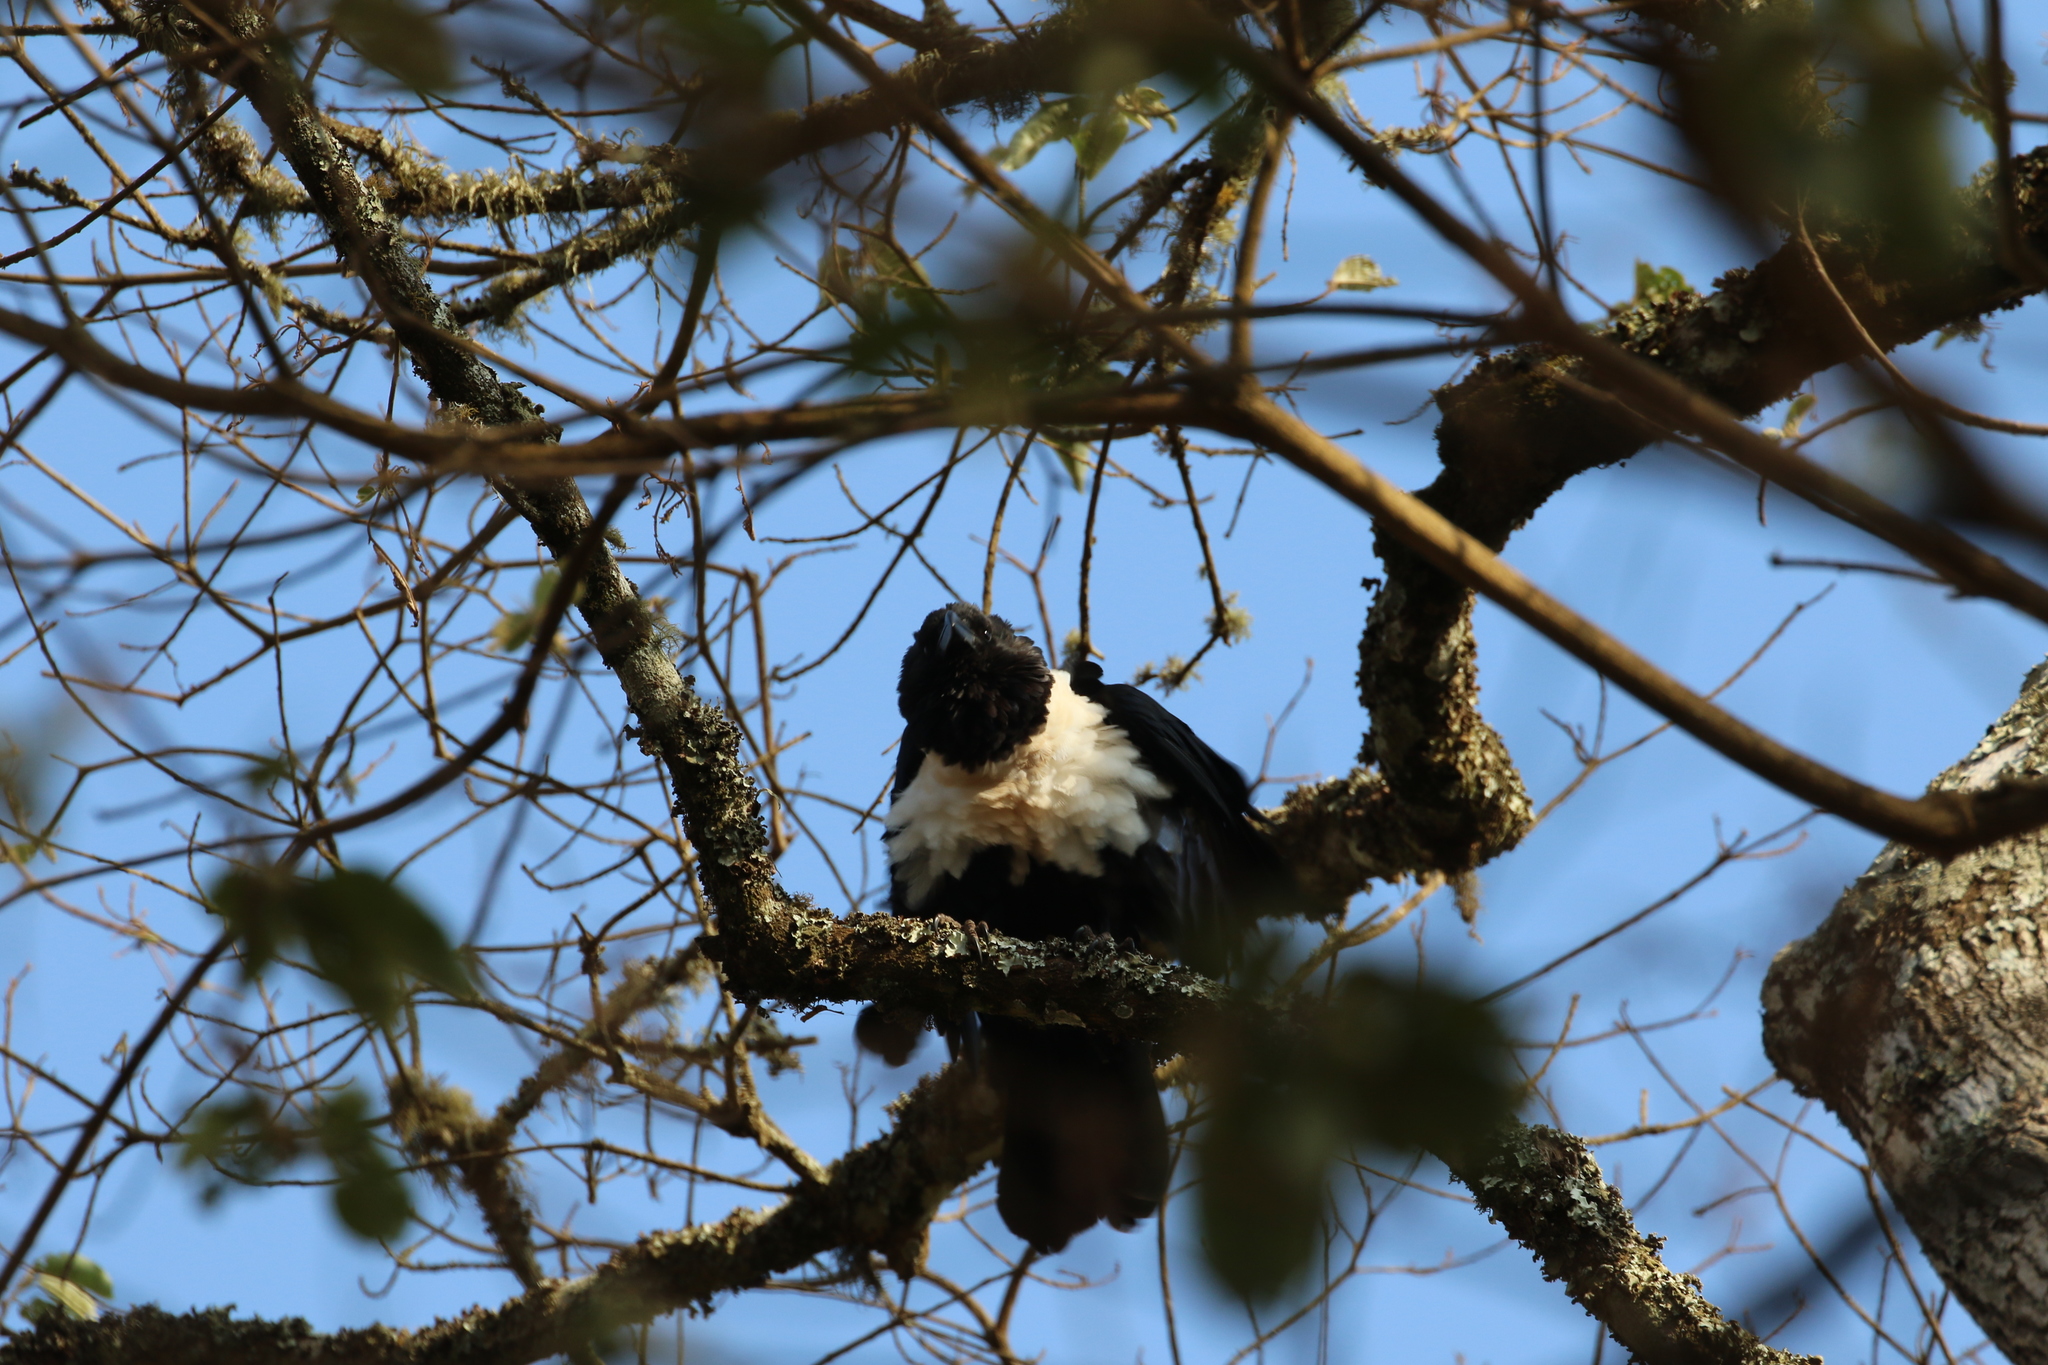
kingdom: Animalia
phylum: Chordata
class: Aves
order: Passeriformes
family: Corvidae
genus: Corvus
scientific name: Corvus albus
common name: Pied crow
